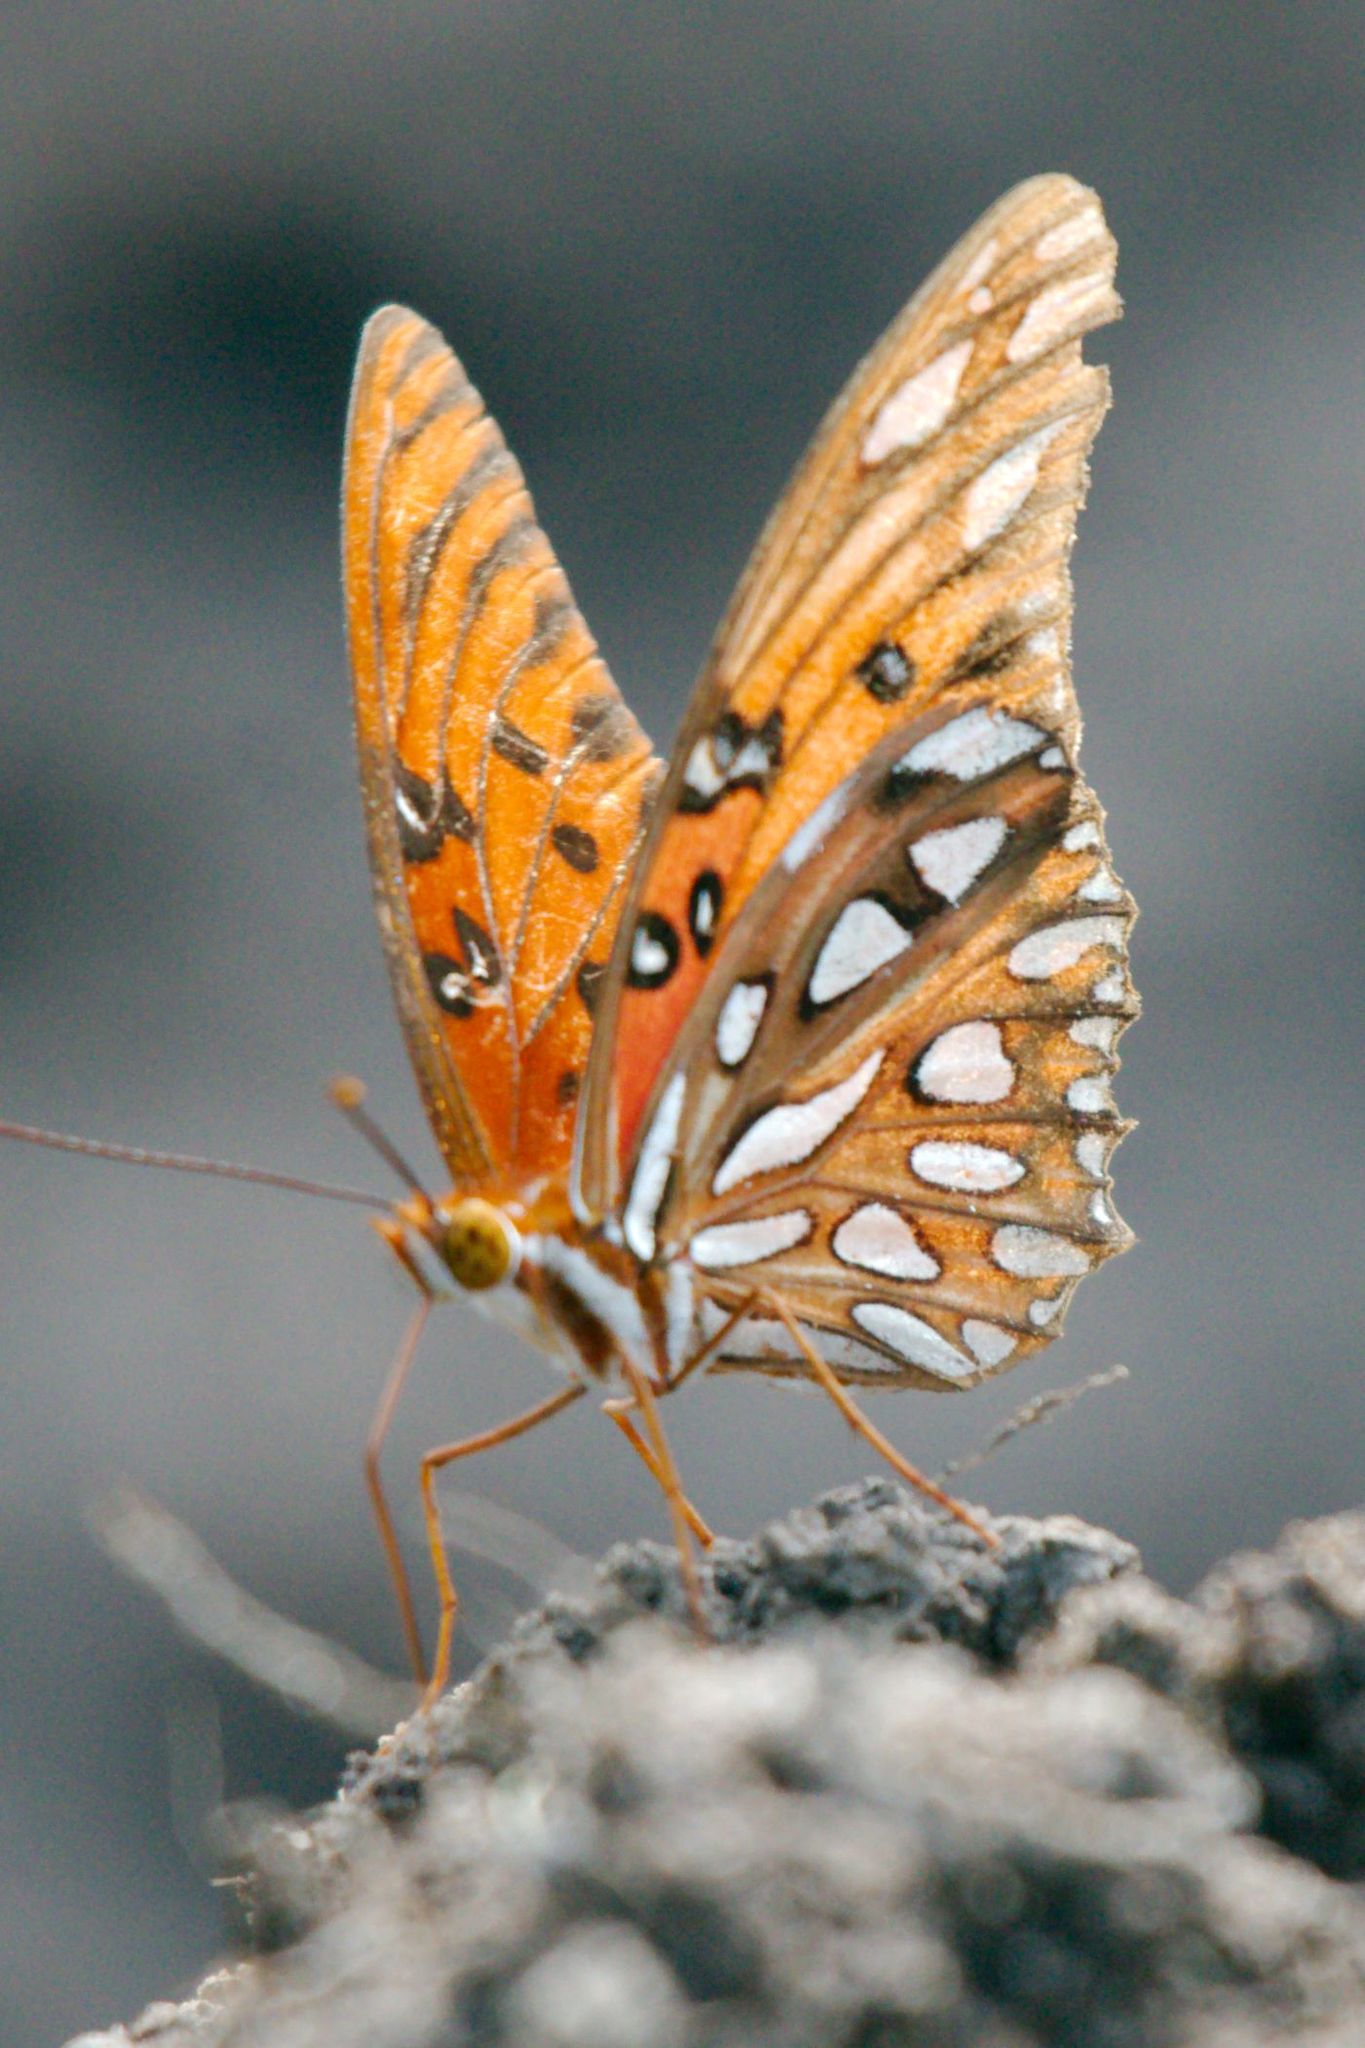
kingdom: Animalia
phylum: Arthropoda
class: Insecta
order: Lepidoptera
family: Nymphalidae
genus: Dione
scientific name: Dione vanillae
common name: Gulf fritillary
